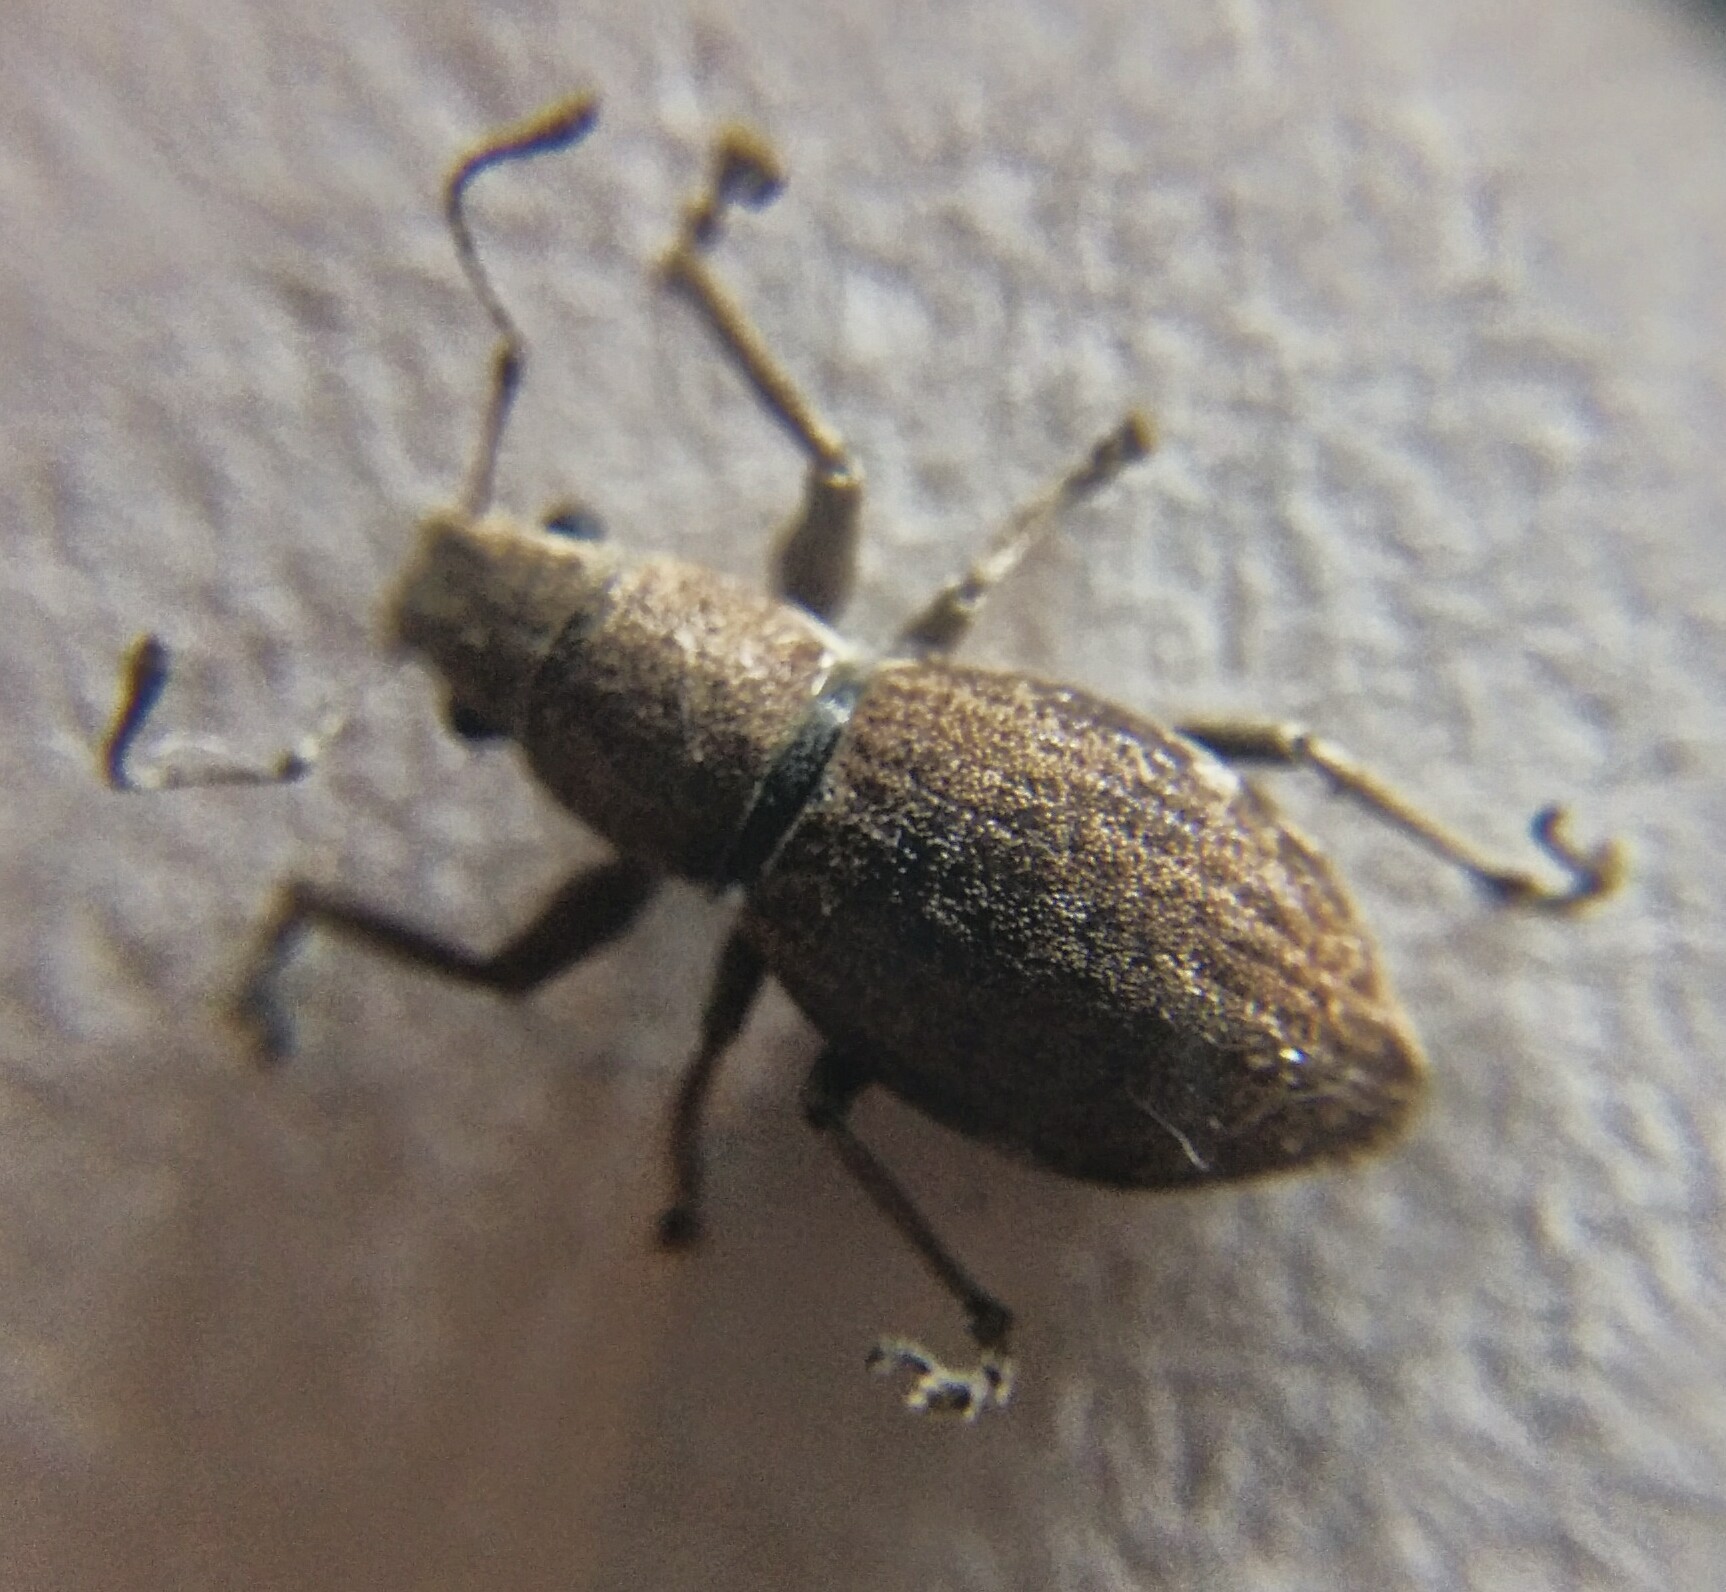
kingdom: Animalia
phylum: Arthropoda
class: Insecta
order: Coleoptera
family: Curculionidae
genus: Naupactus
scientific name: Naupactus cervinus
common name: Fuller rose beetle
